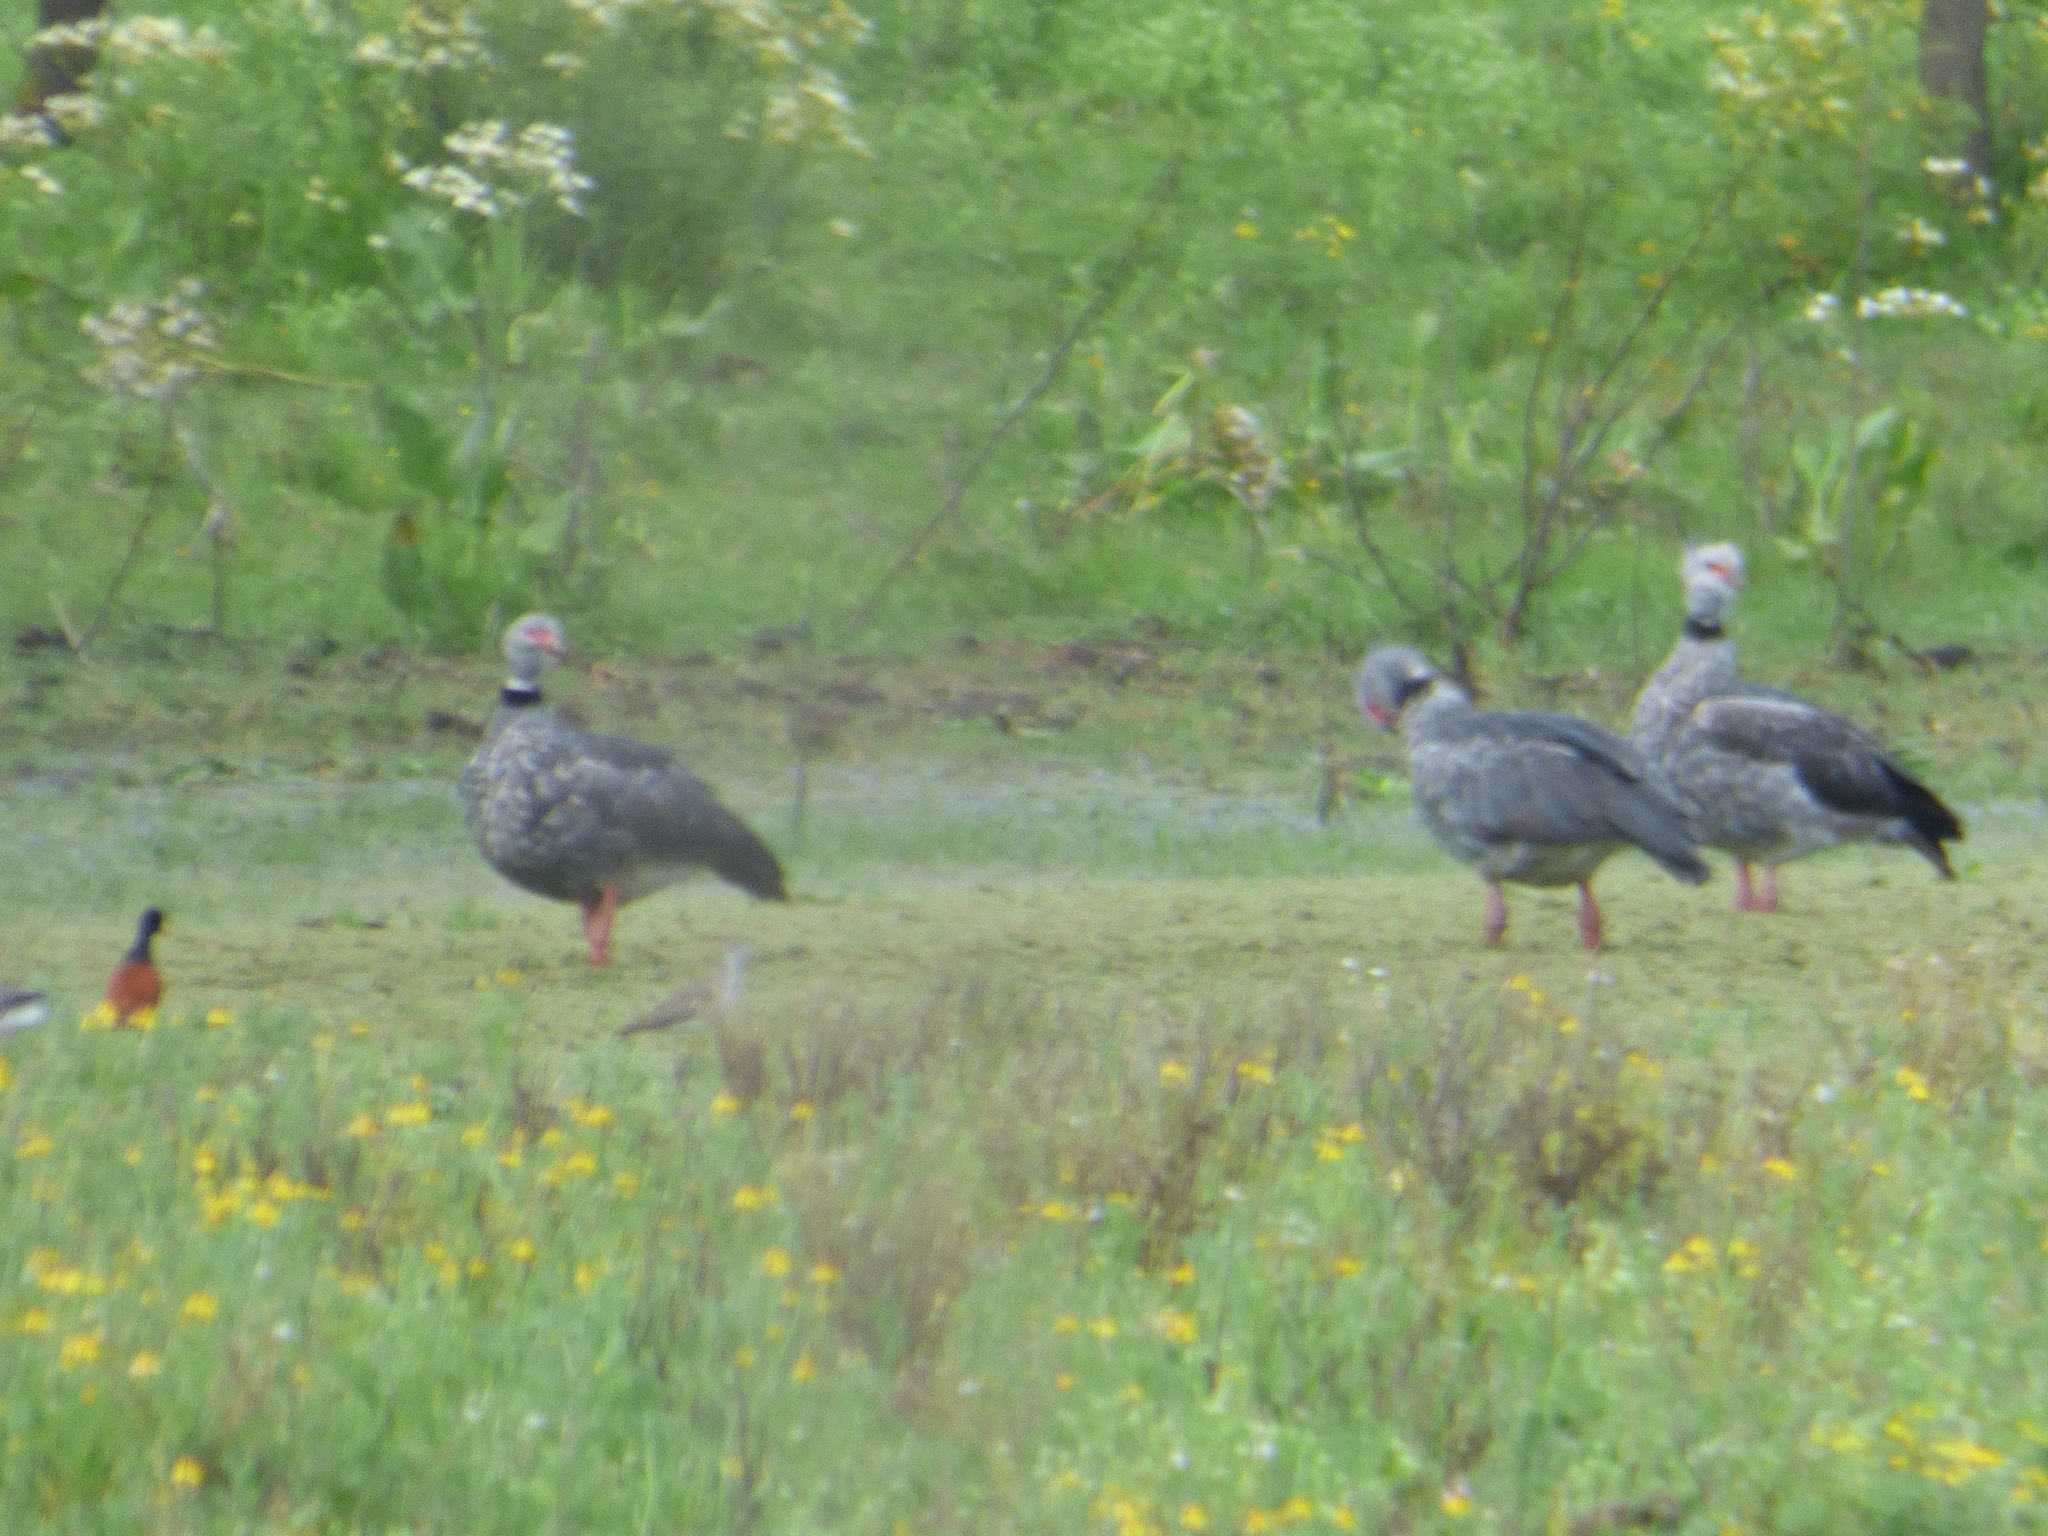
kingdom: Animalia
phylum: Chordata
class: Aves
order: Anseriformes
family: Anhimidae
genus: Chauna
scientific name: Chauna torquata
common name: Southern screamer
